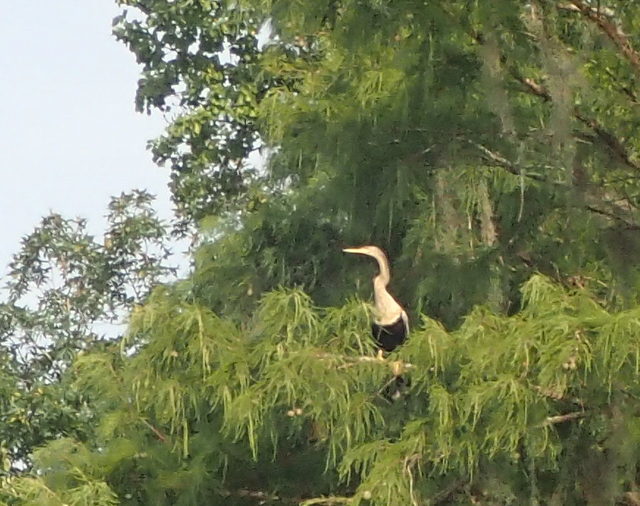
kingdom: Animalia
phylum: Chordata
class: Aves
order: Suliformes
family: Anhingidae
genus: Anhinga
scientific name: Anhinga anhinga
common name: Anhinga
